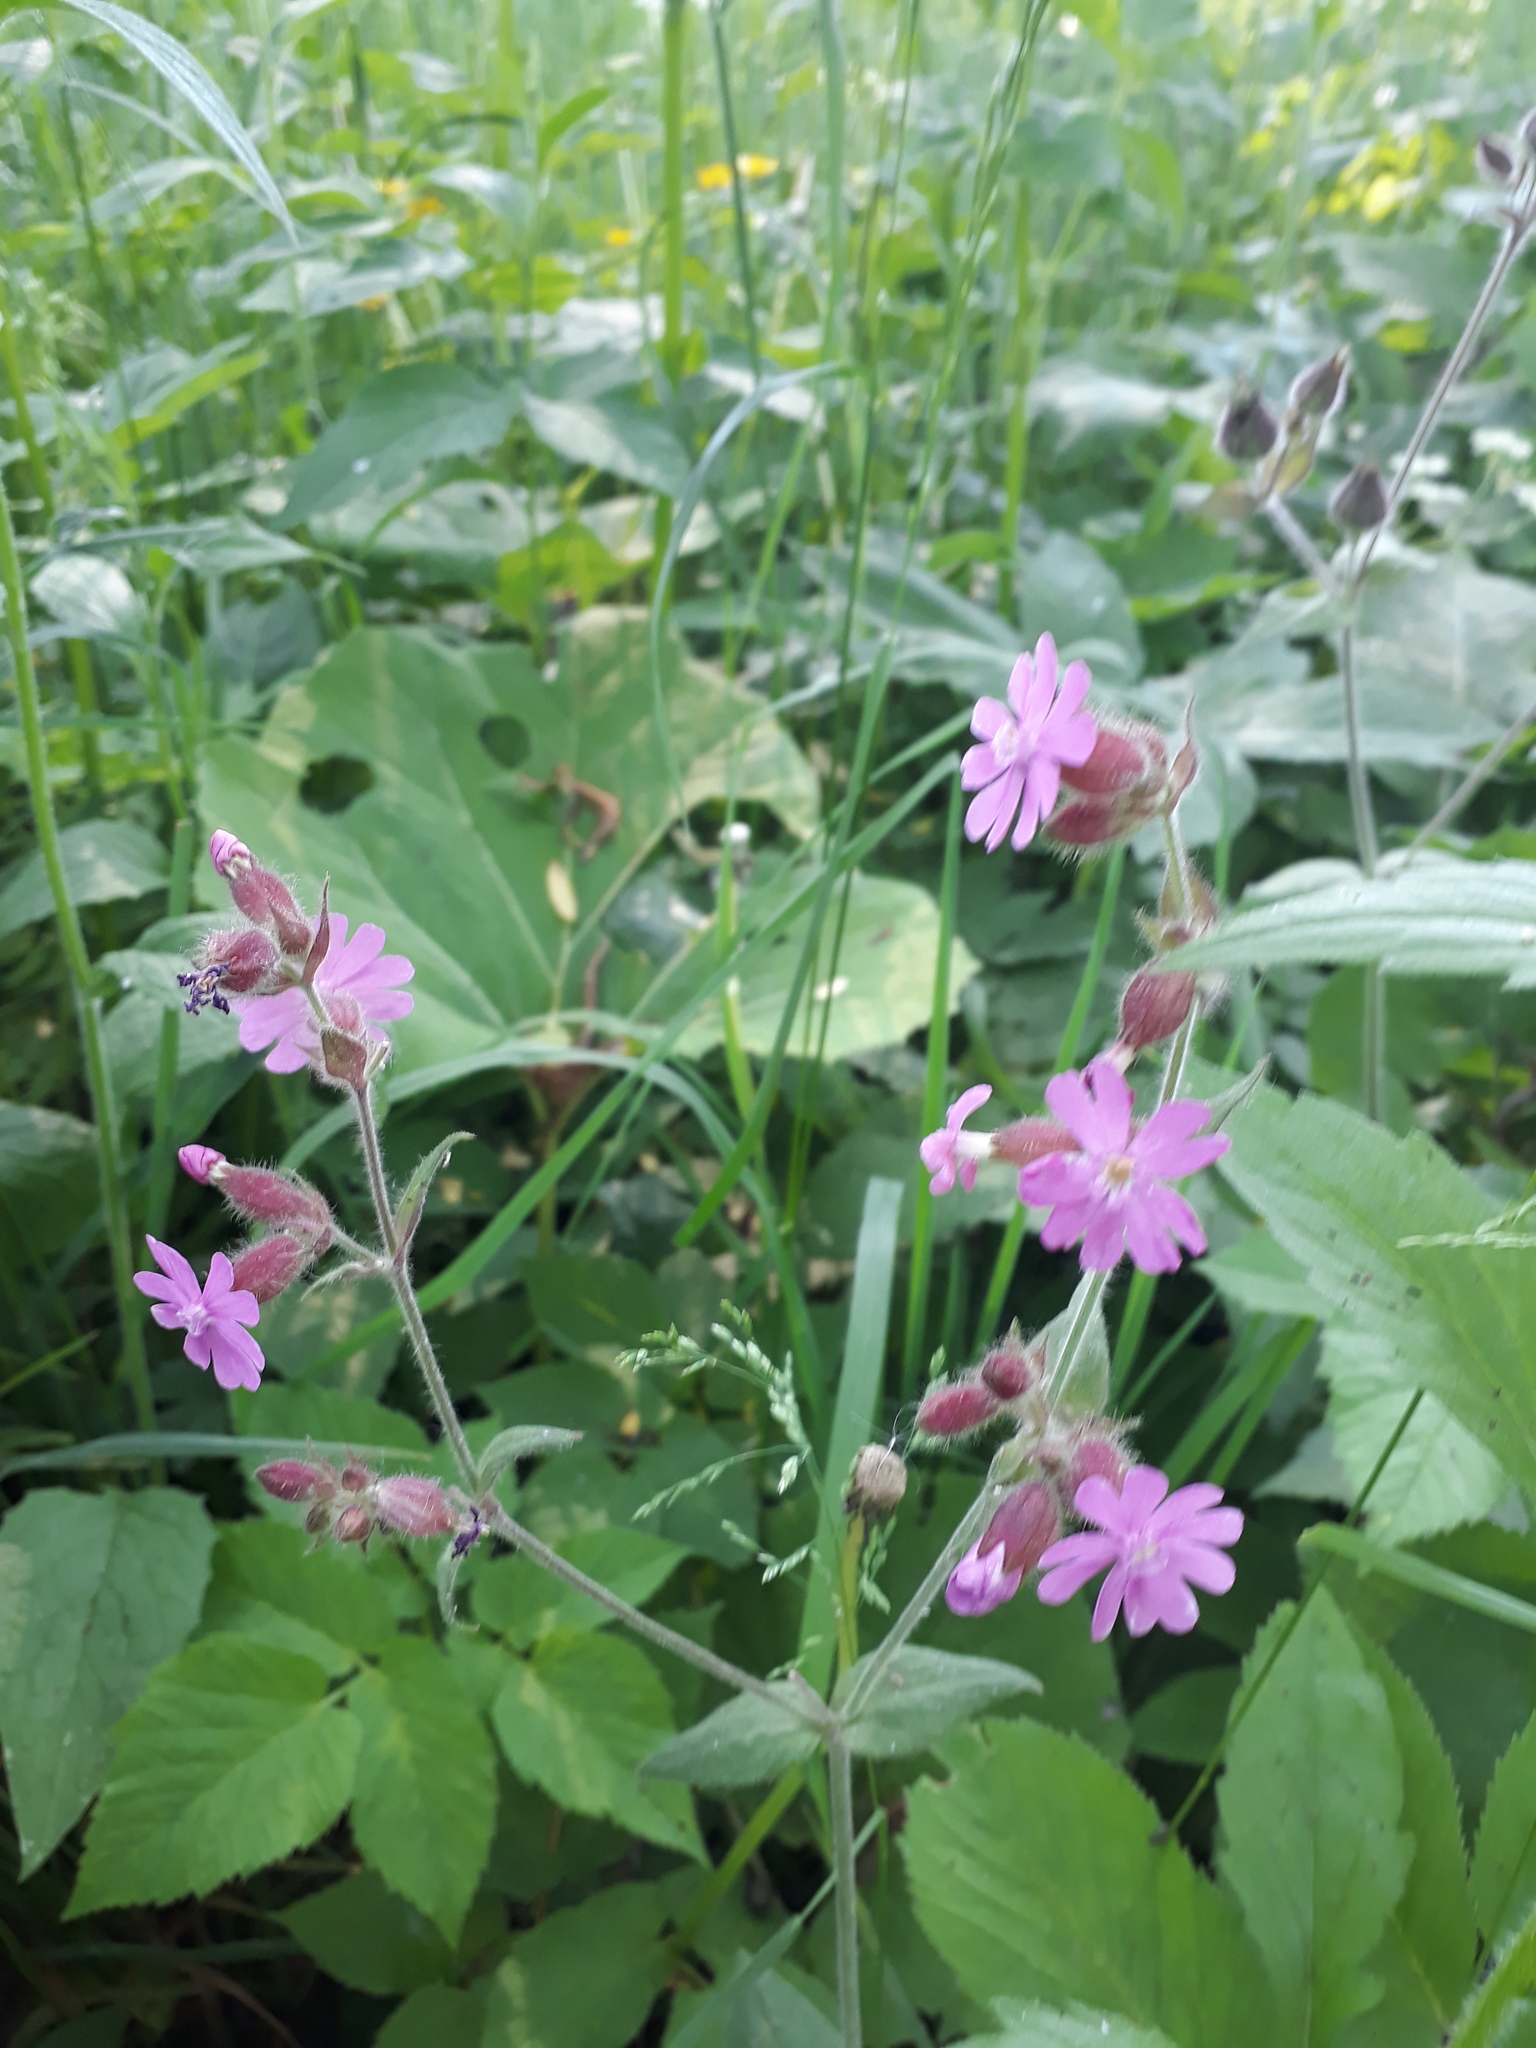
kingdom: Plantae
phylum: Tracheophyta
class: Magnoliopsida
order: Caryophyllales
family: Caryophyllaceae
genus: Silene
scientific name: Silene dioica
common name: Red campion
